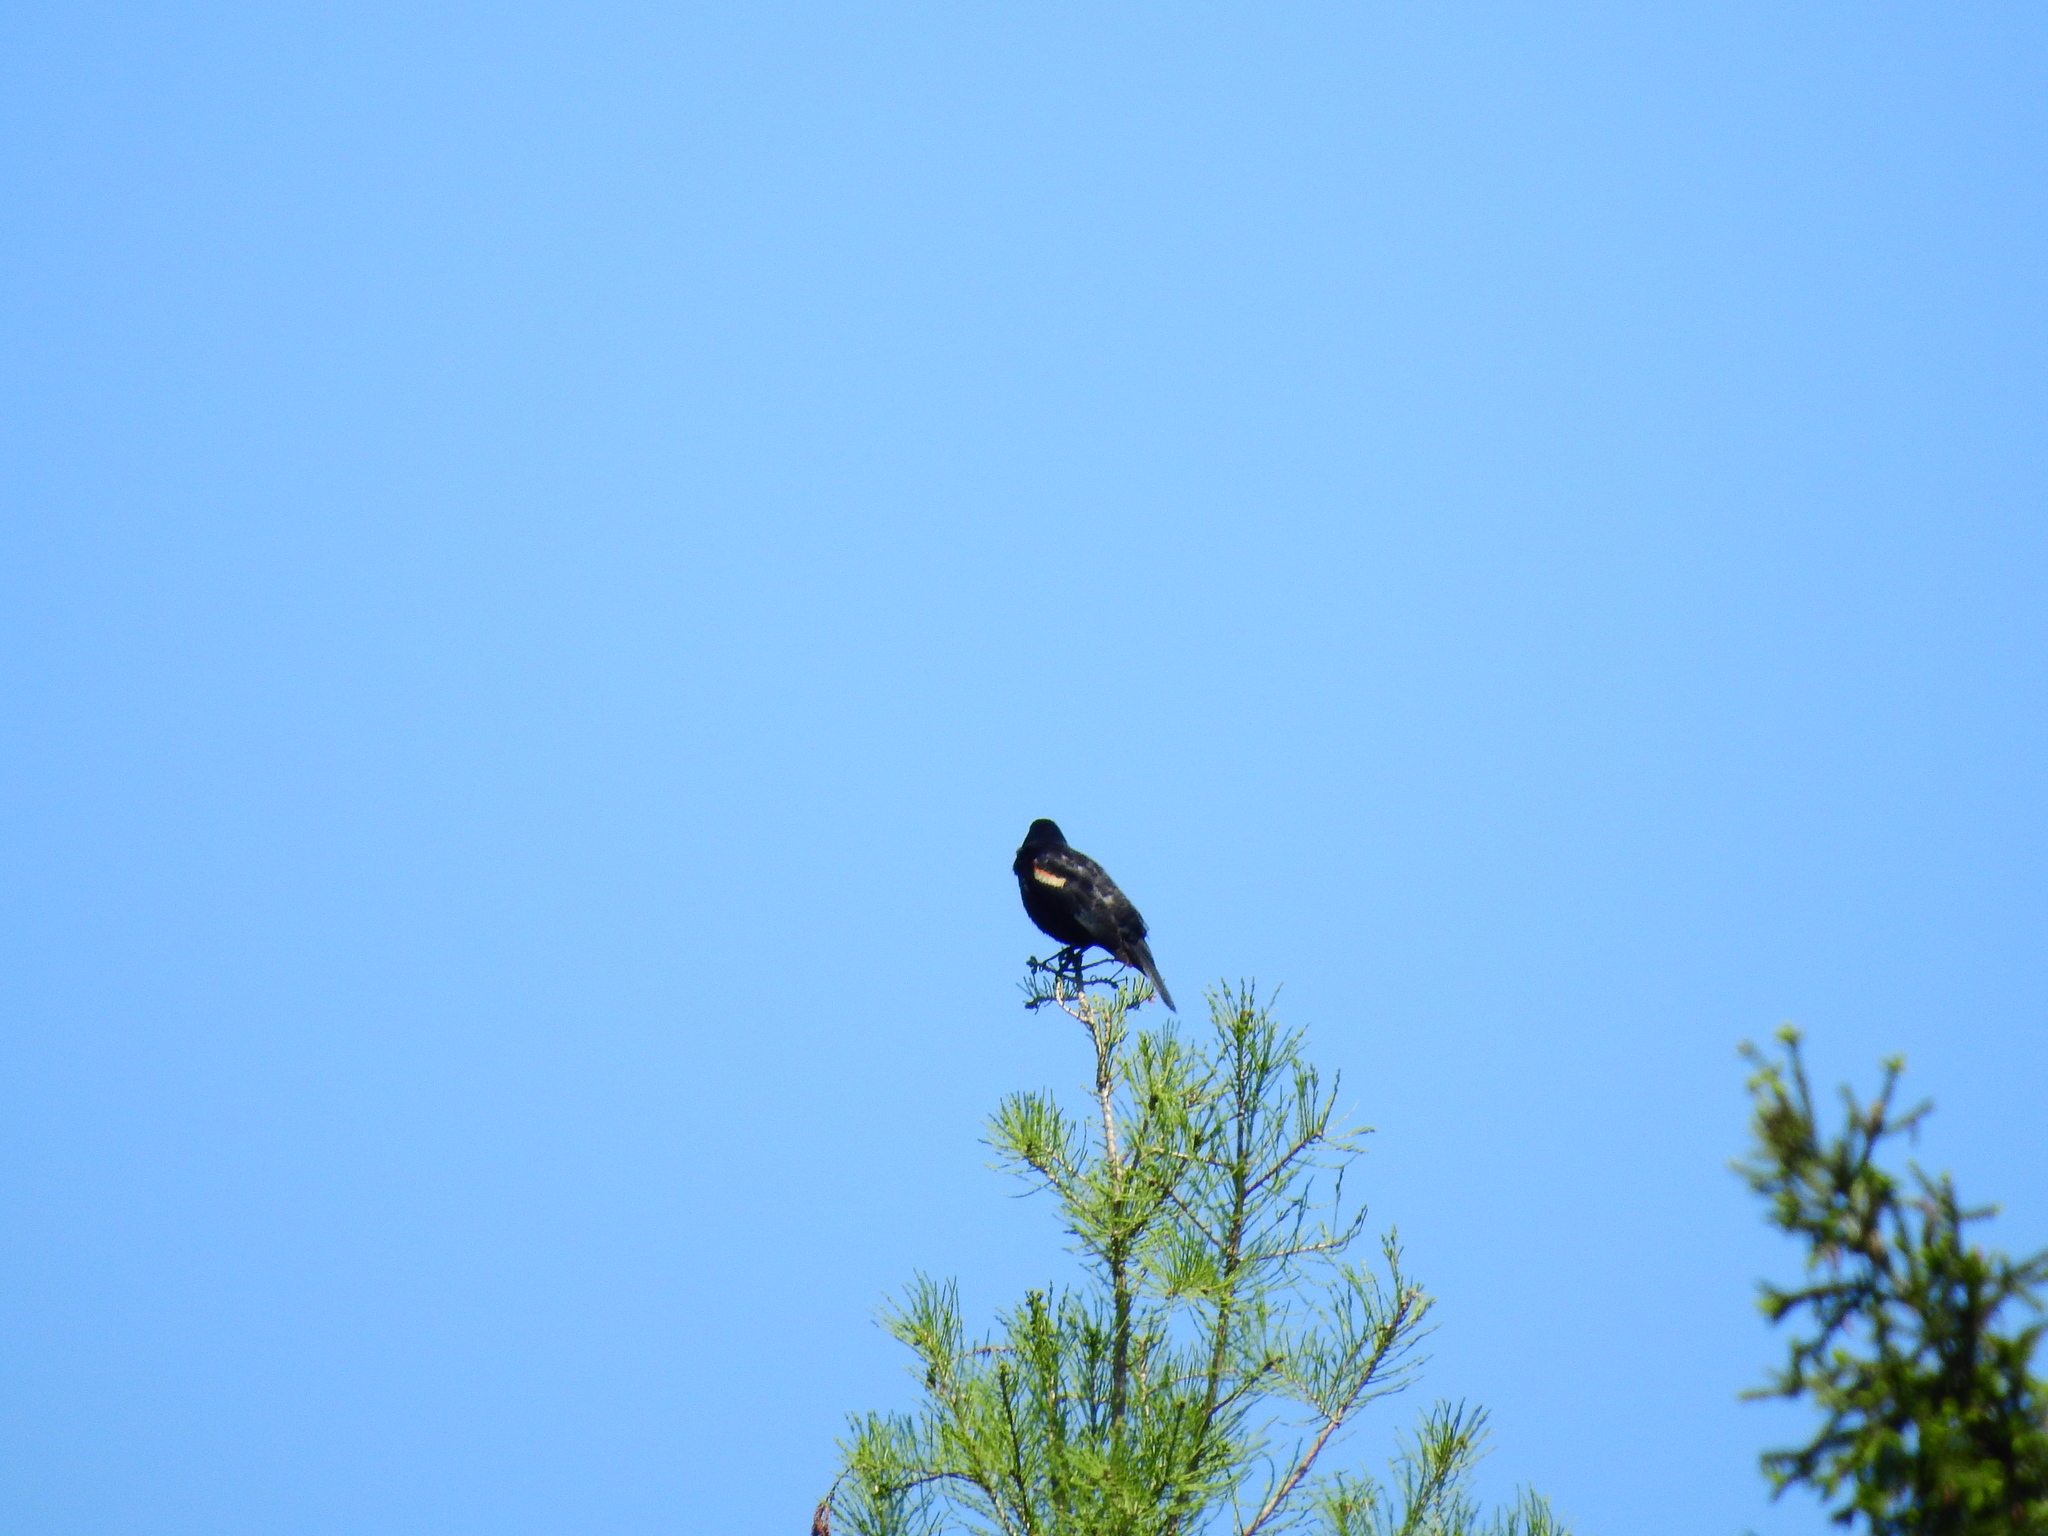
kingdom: Animalia
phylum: Chordata
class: Aves
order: Passeriformes
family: Icteridae
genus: Agelaius
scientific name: Agelaius phoeniceus
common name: Red-winged blackbird
